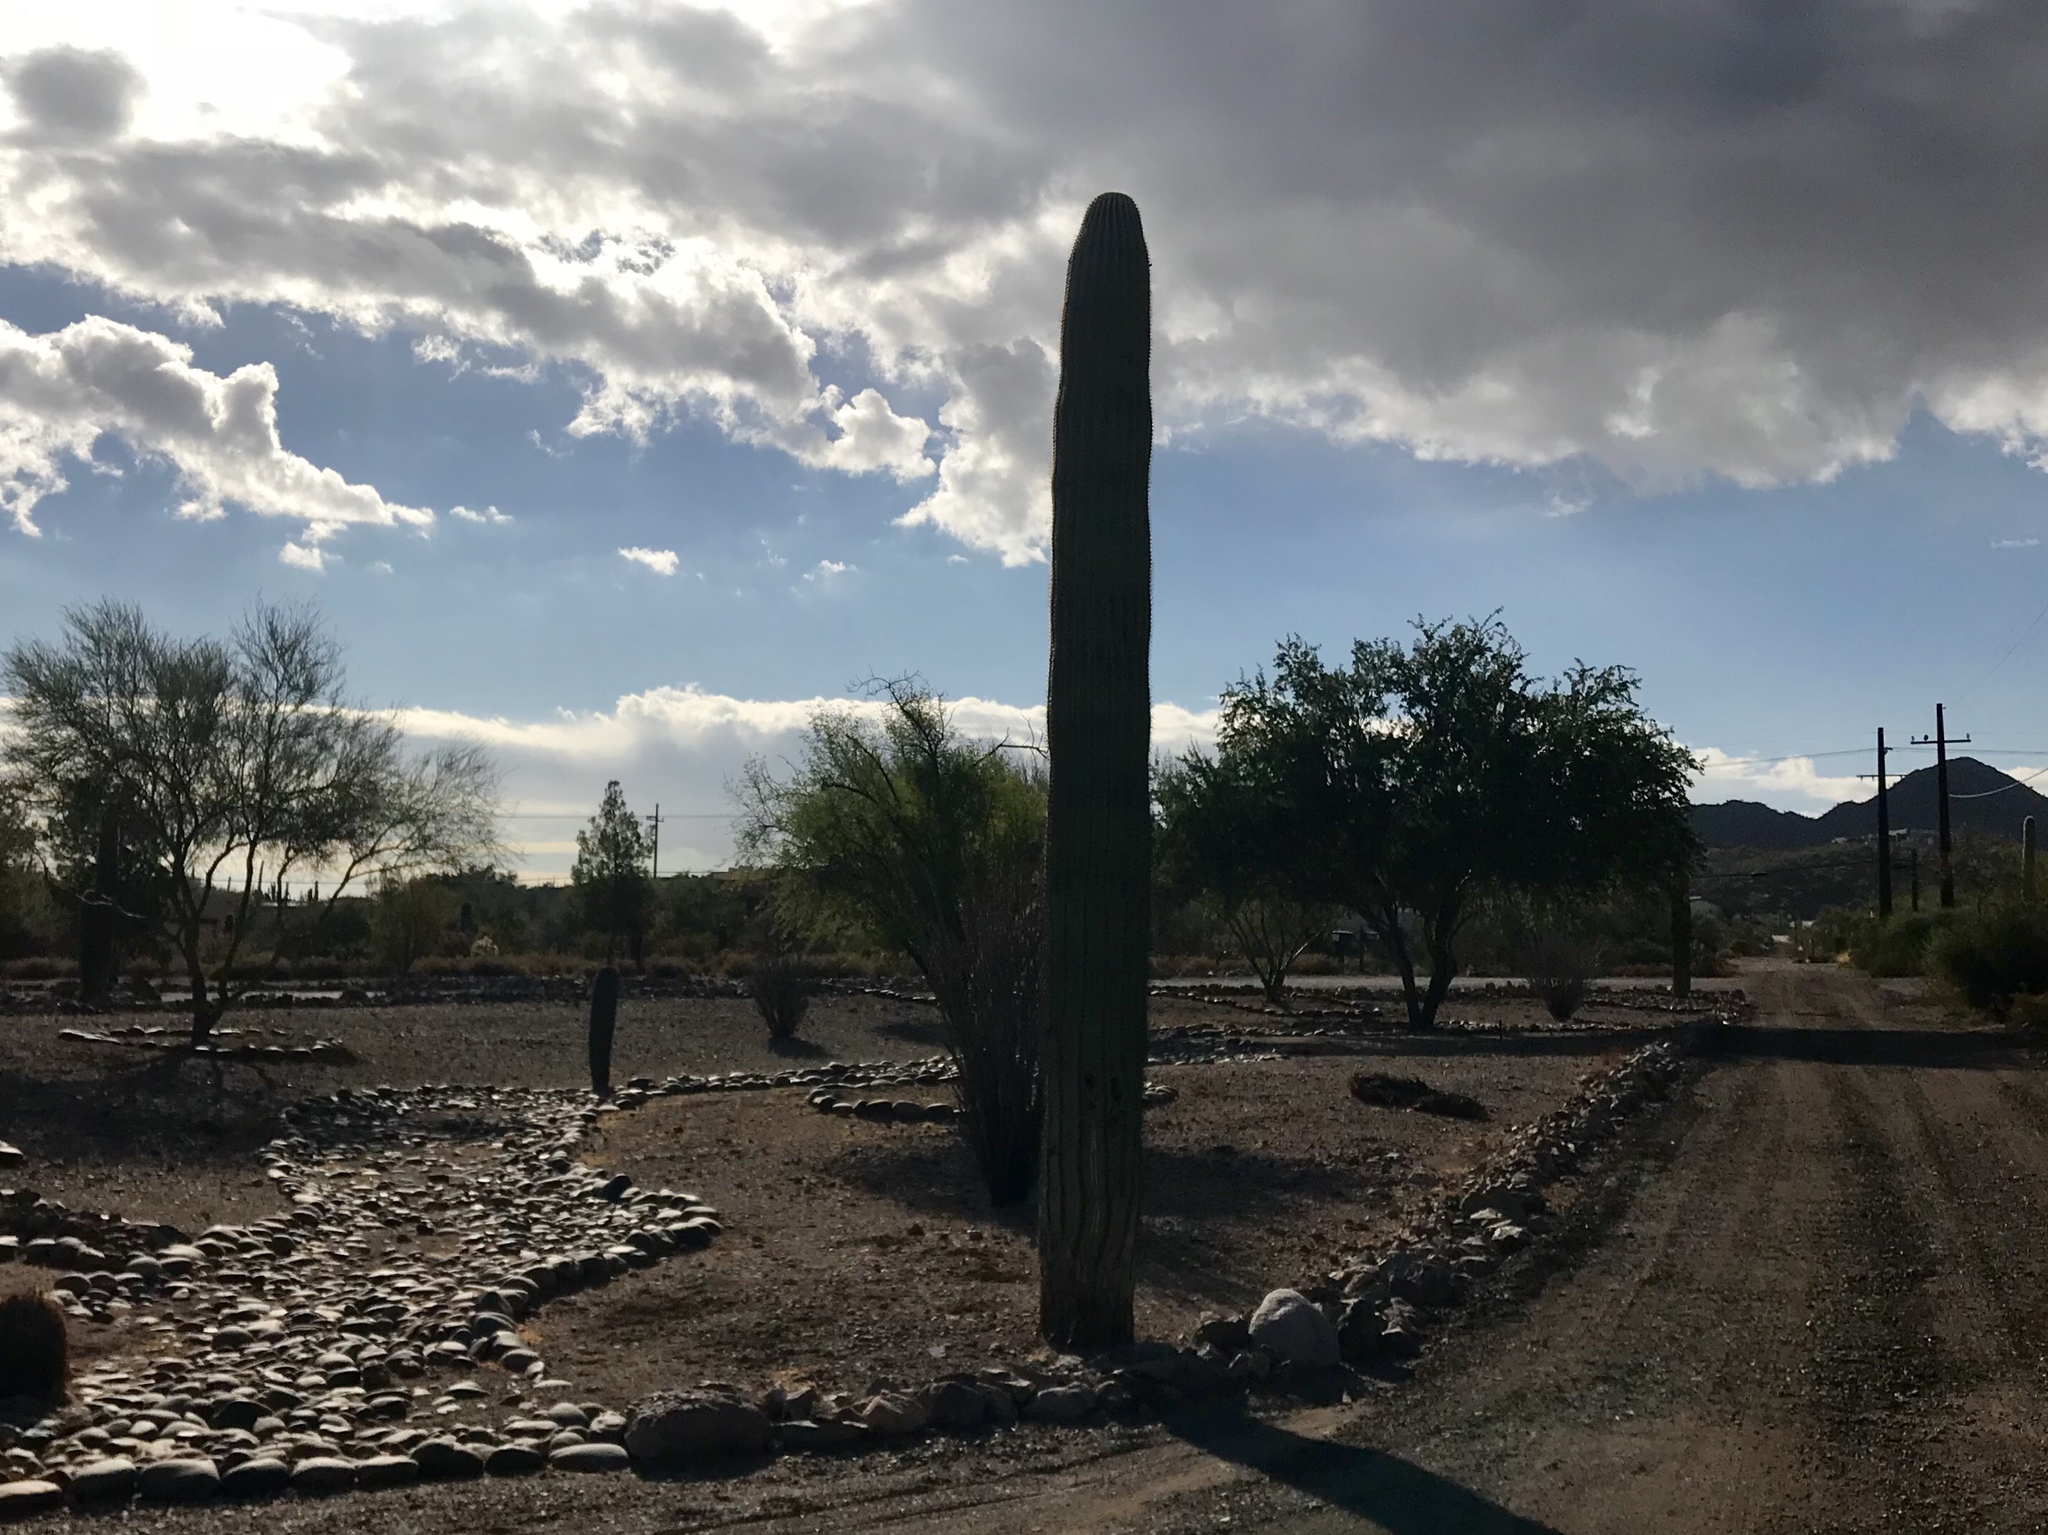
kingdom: Plantae
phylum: Tracheophyta
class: Magnoliopsida
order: Caryophyllales
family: Cactaceae
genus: Carnegiea
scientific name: Carnegiea gigantea
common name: Saguaro
